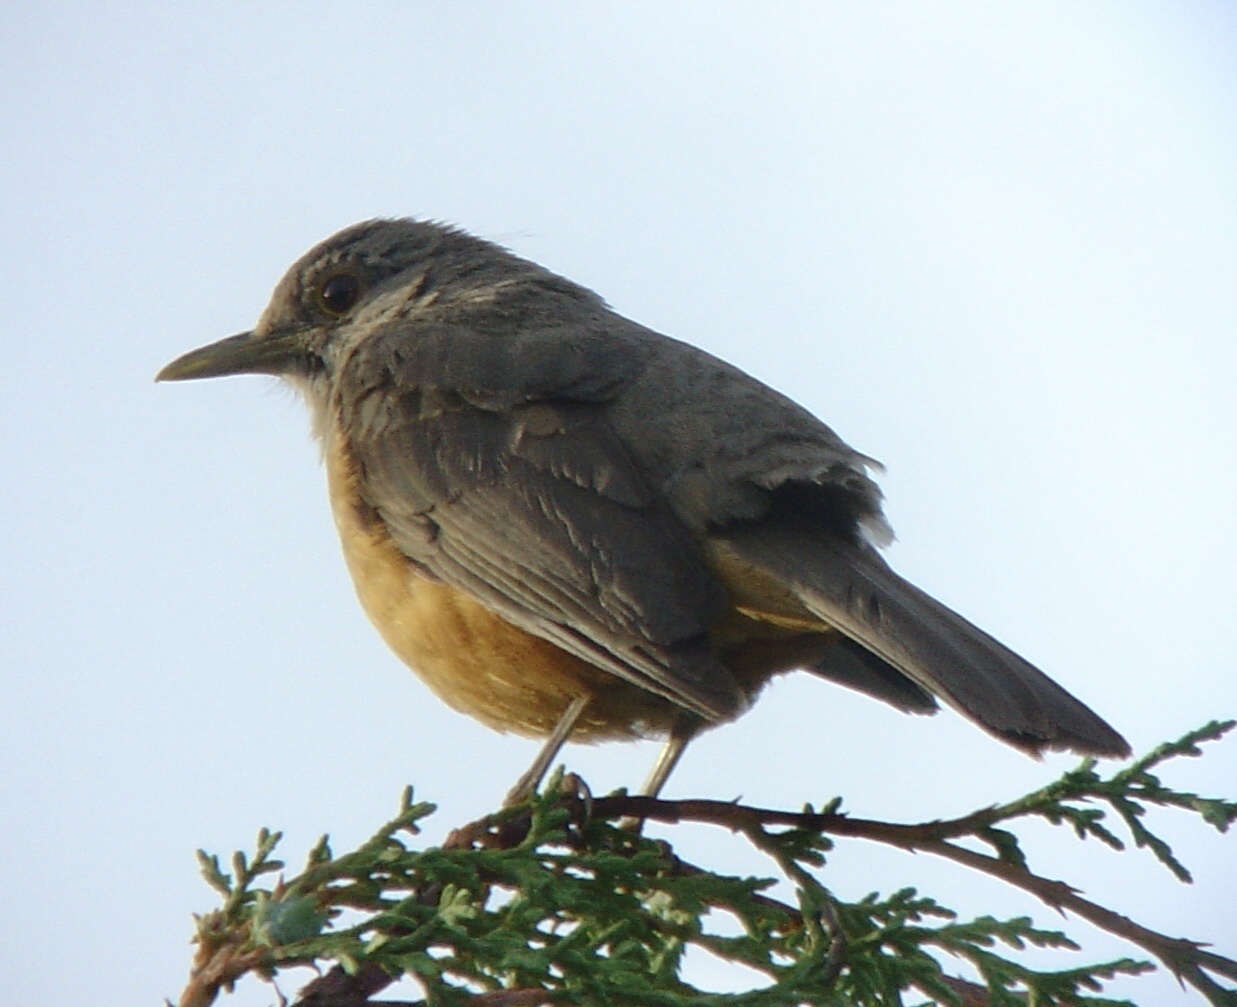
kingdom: Animalia
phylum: Chordata
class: Aves
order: Passeriformes
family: Turdidae
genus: Turdus
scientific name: Turdus rufiventris
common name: Rufous-bellied thrush
